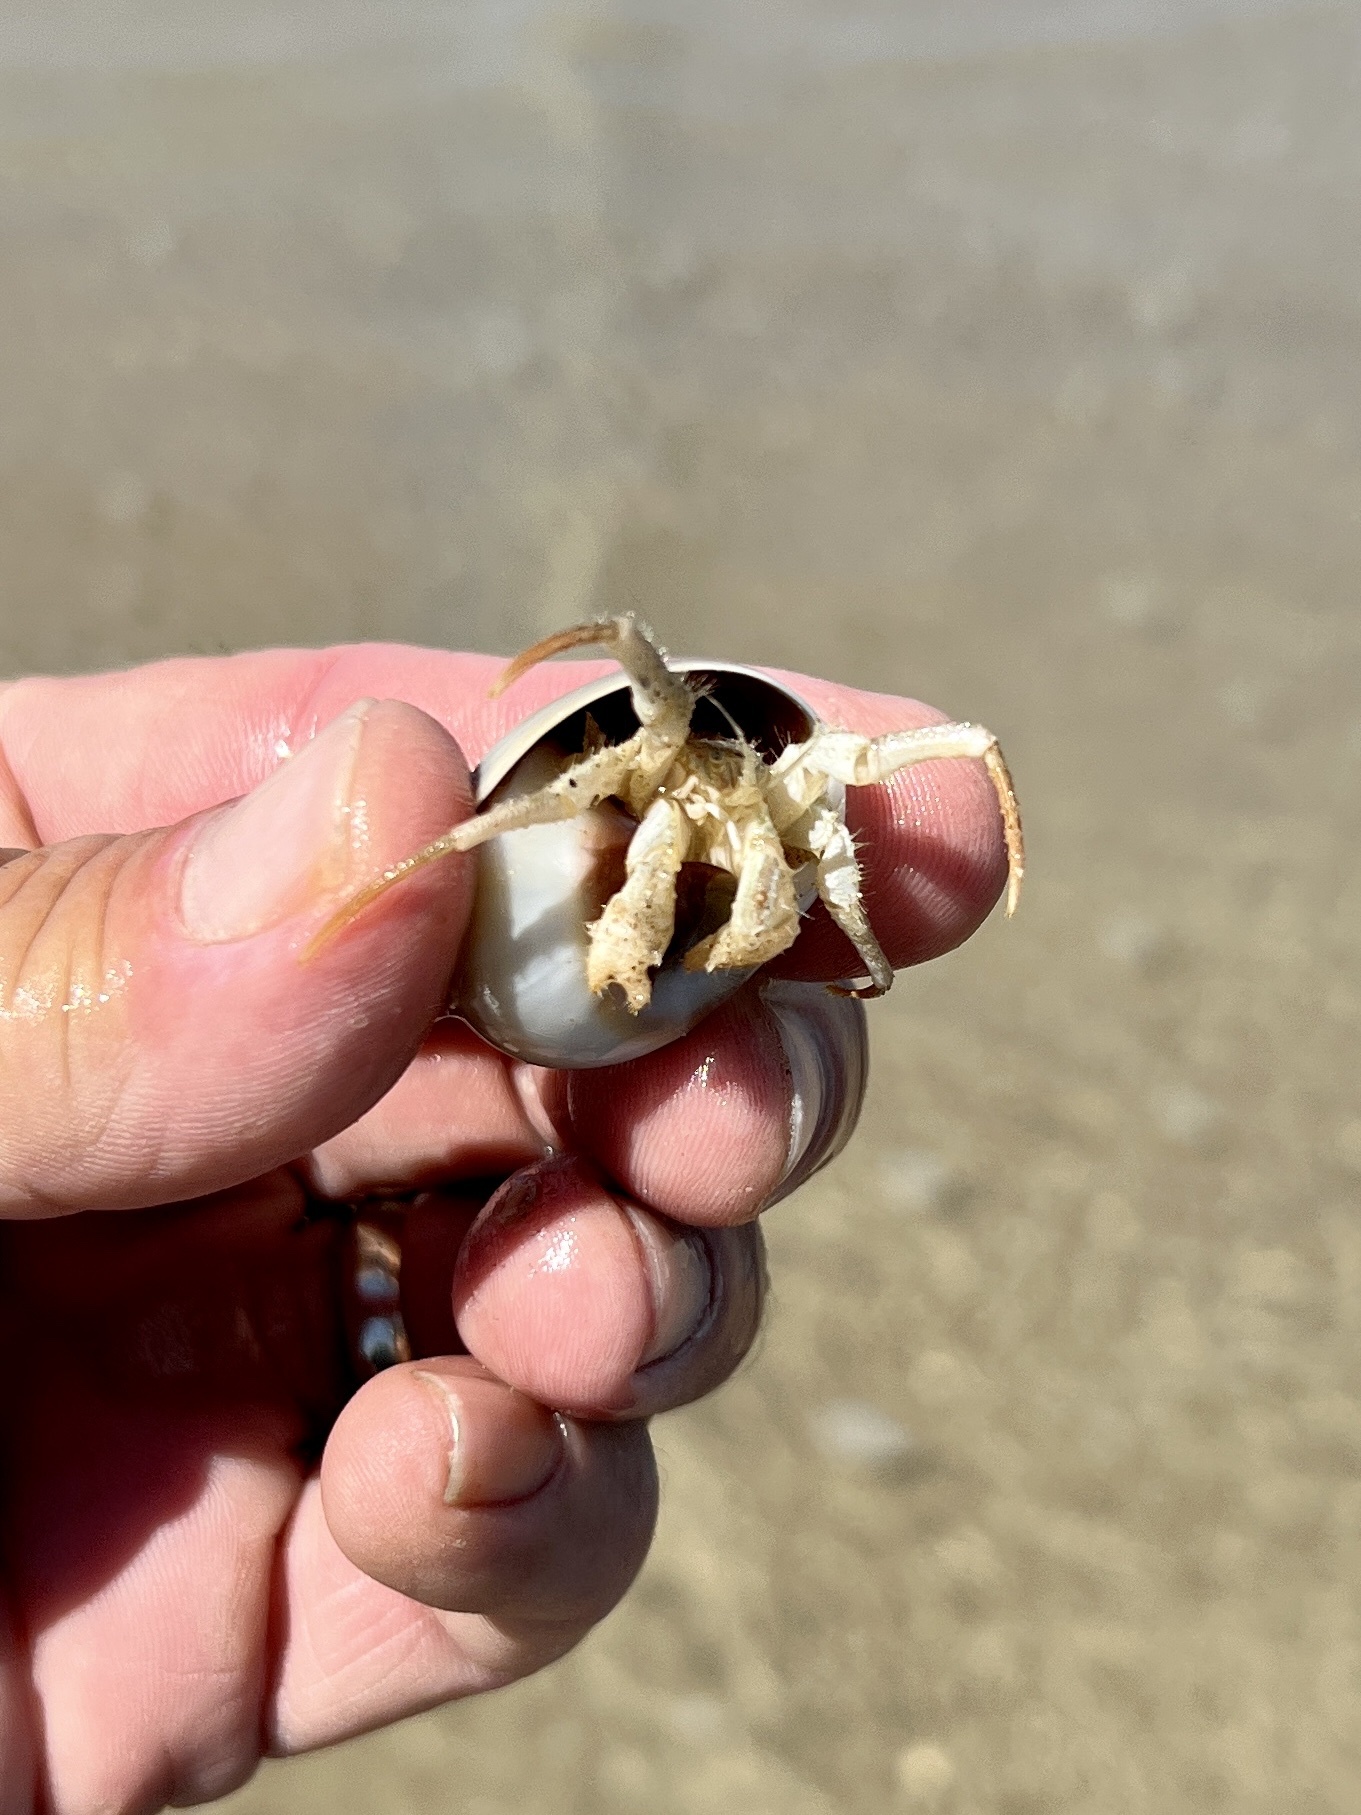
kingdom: Animalia
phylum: Arthropoda
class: Malacostraca
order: Decapoda
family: Diogenidae
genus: Isocheles
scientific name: Isocheles wurdemanni
